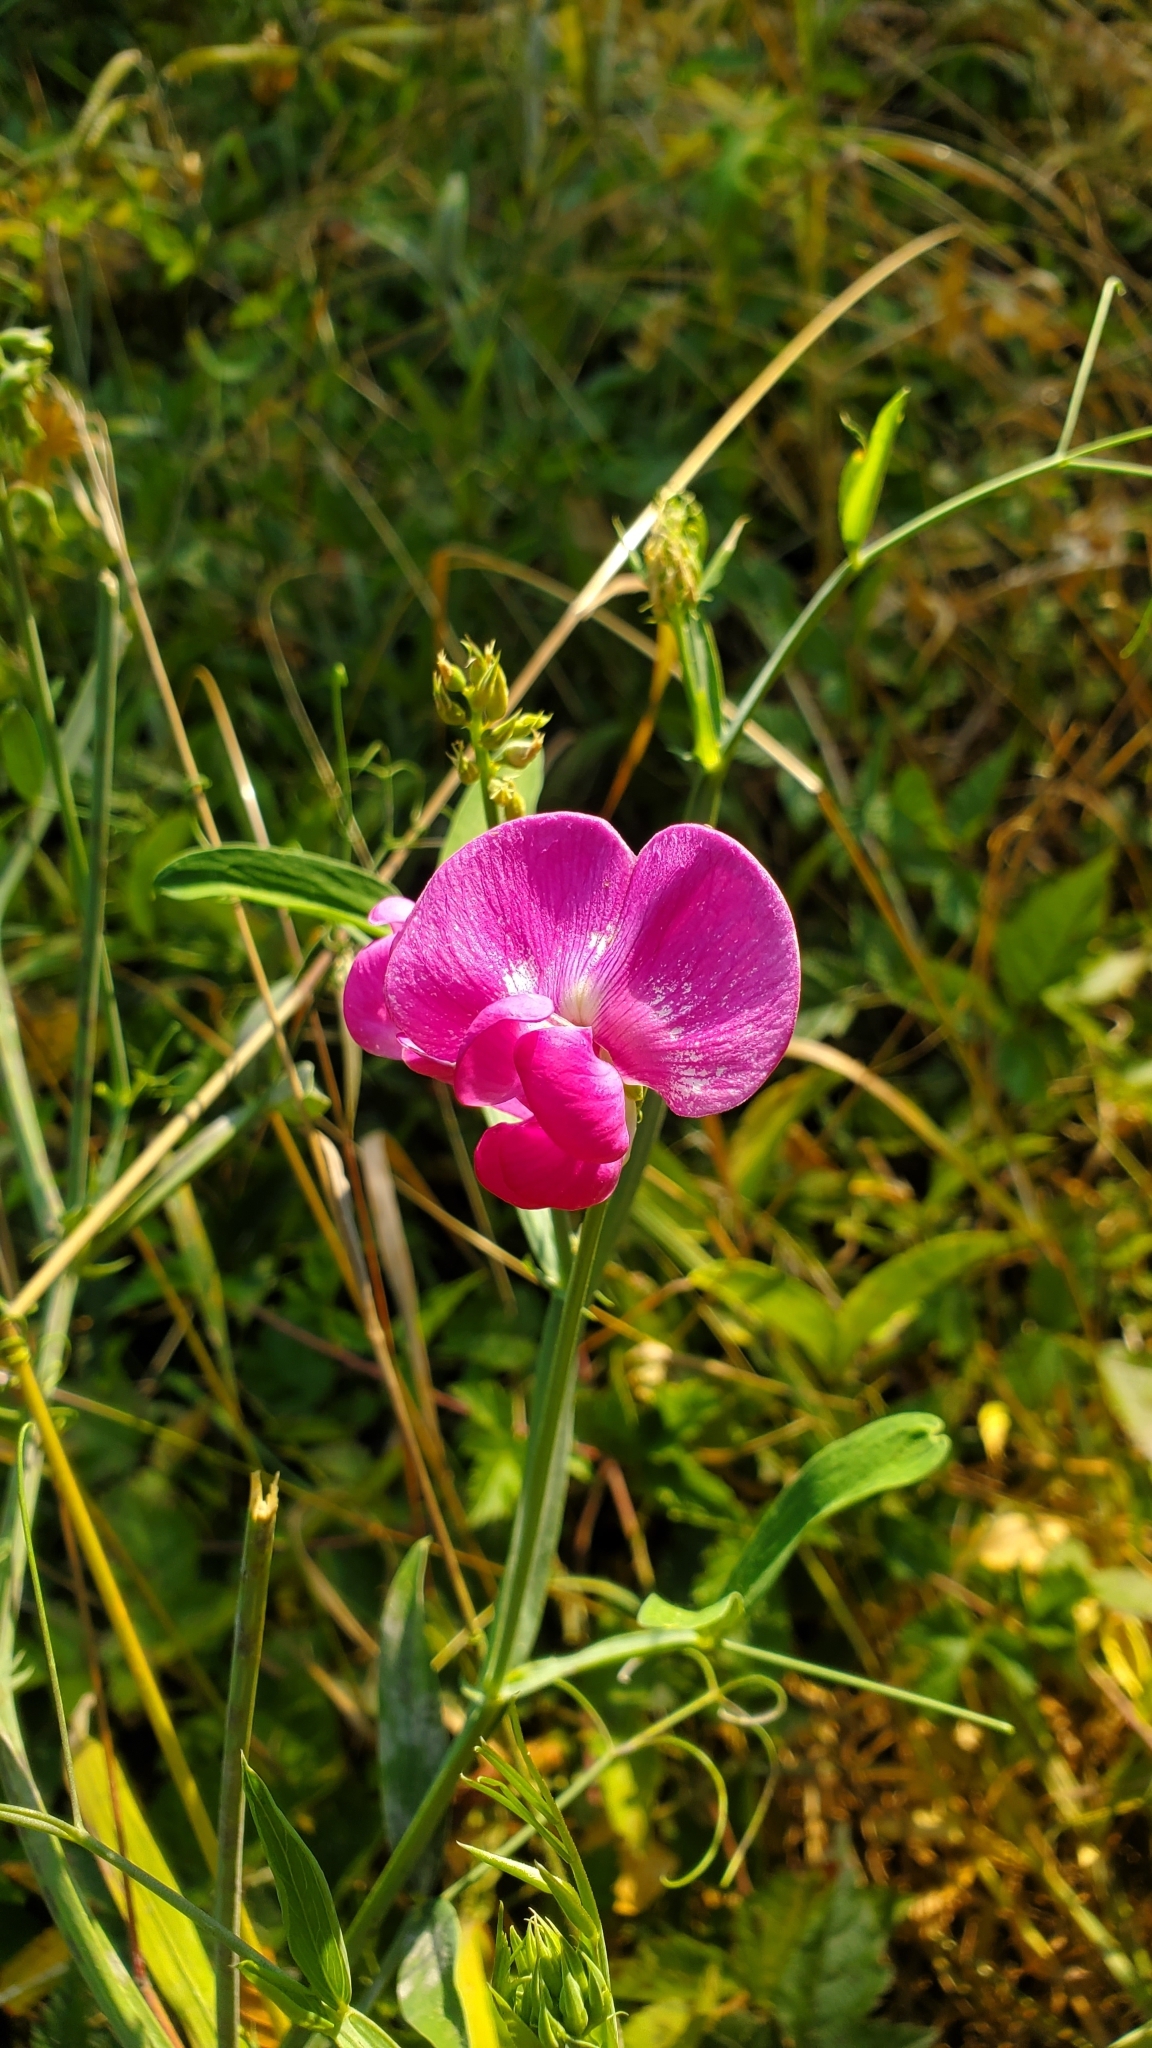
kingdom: Plantae
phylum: Tracheophyta
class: Magnoliopsida
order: Fabales
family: Fabaceae
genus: Lathyrus
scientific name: Lathyrus latifolius
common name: Perennial pea
